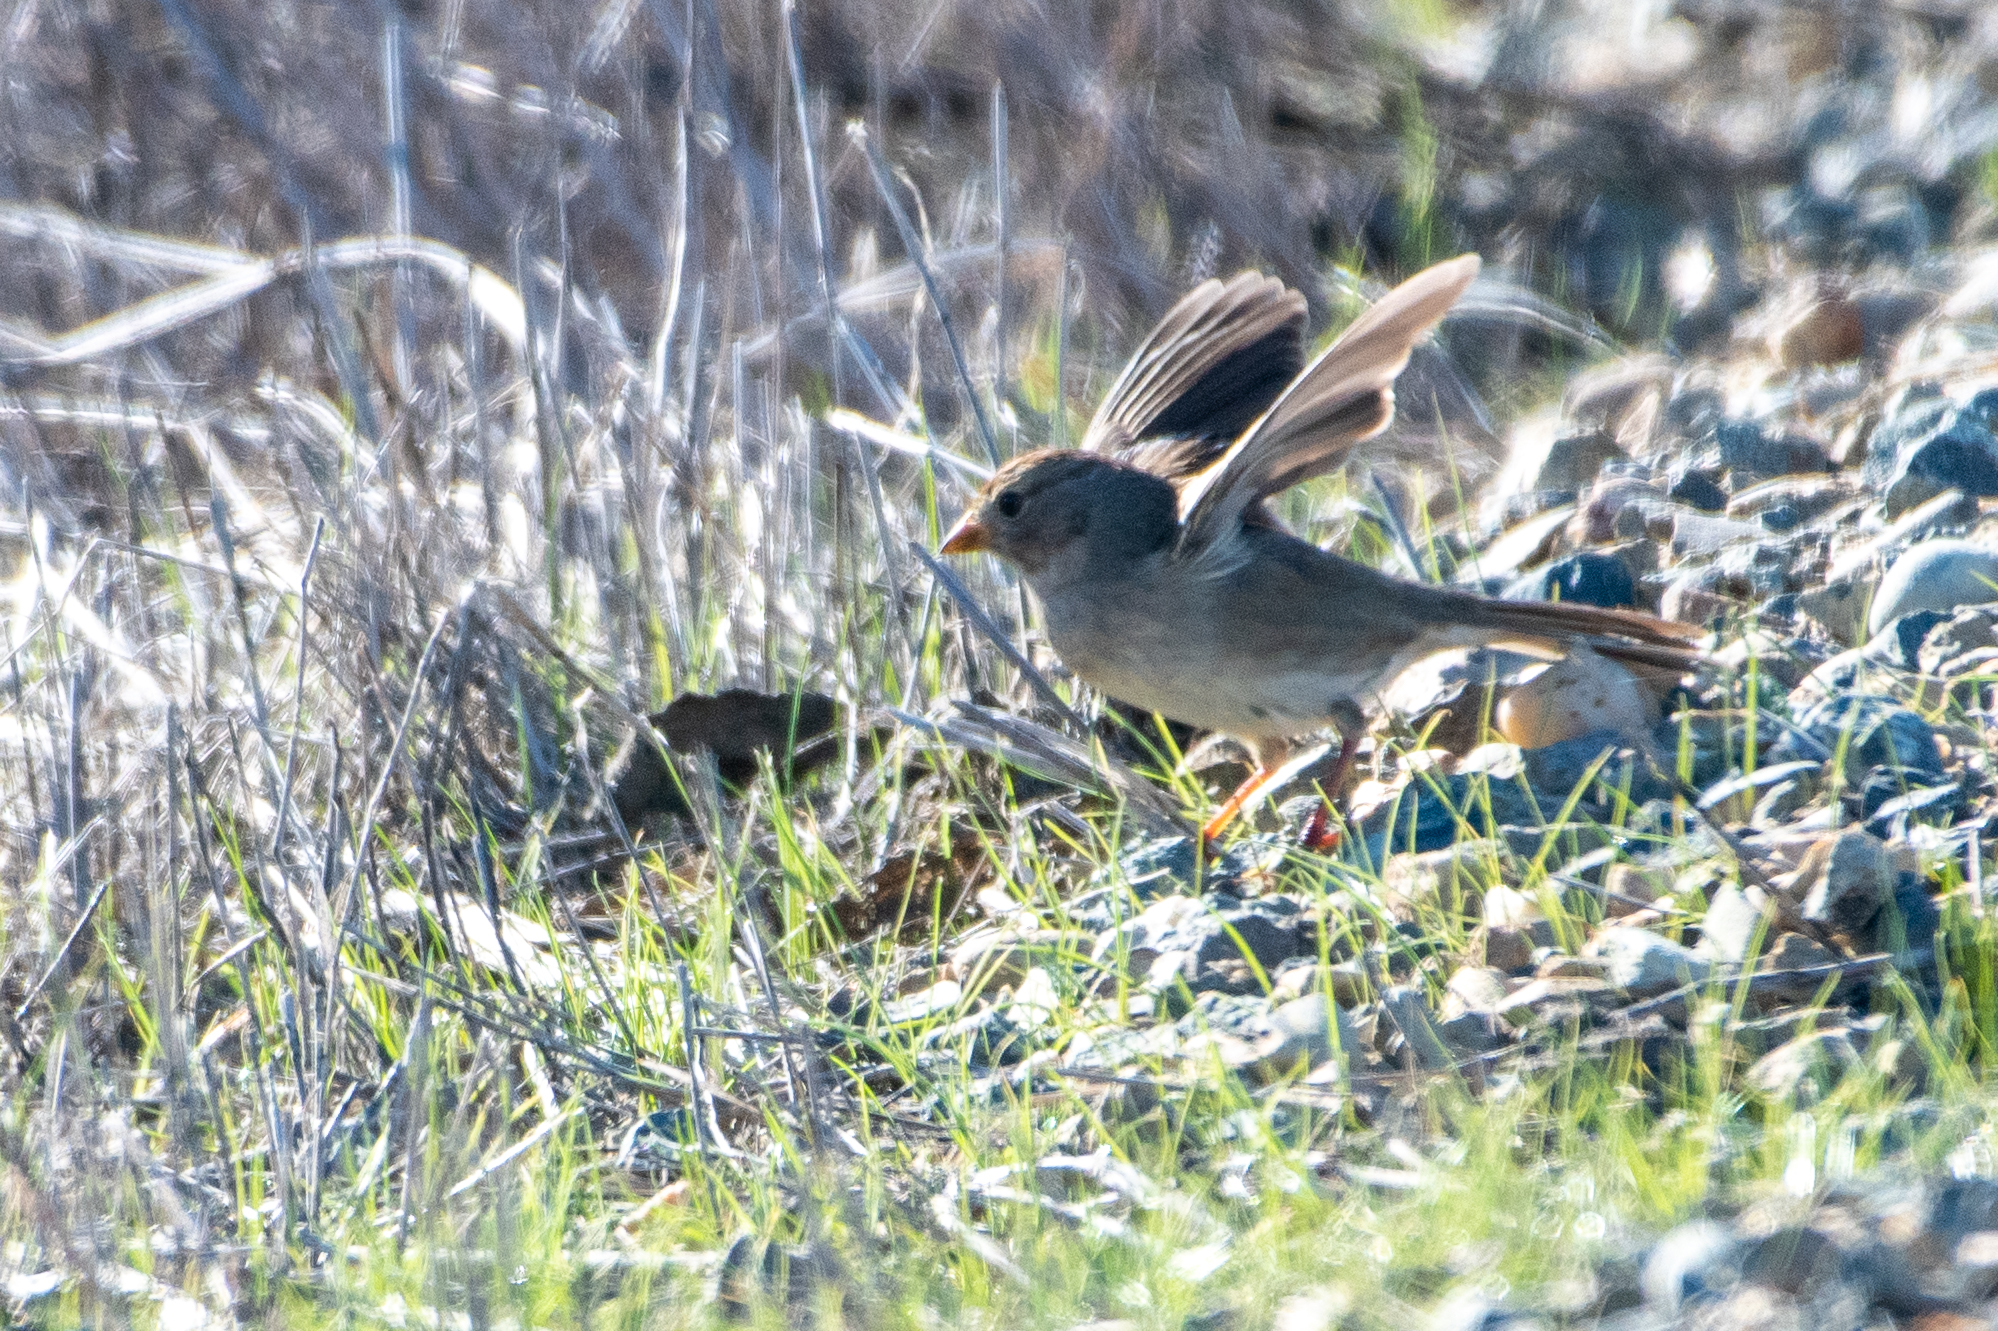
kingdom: Animalia
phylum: Chordata
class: Aves
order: Passeriformes
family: Passerellidae
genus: Zonotrichia
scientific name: Zonotrichia leucophrys
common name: White-crowned sparrow
